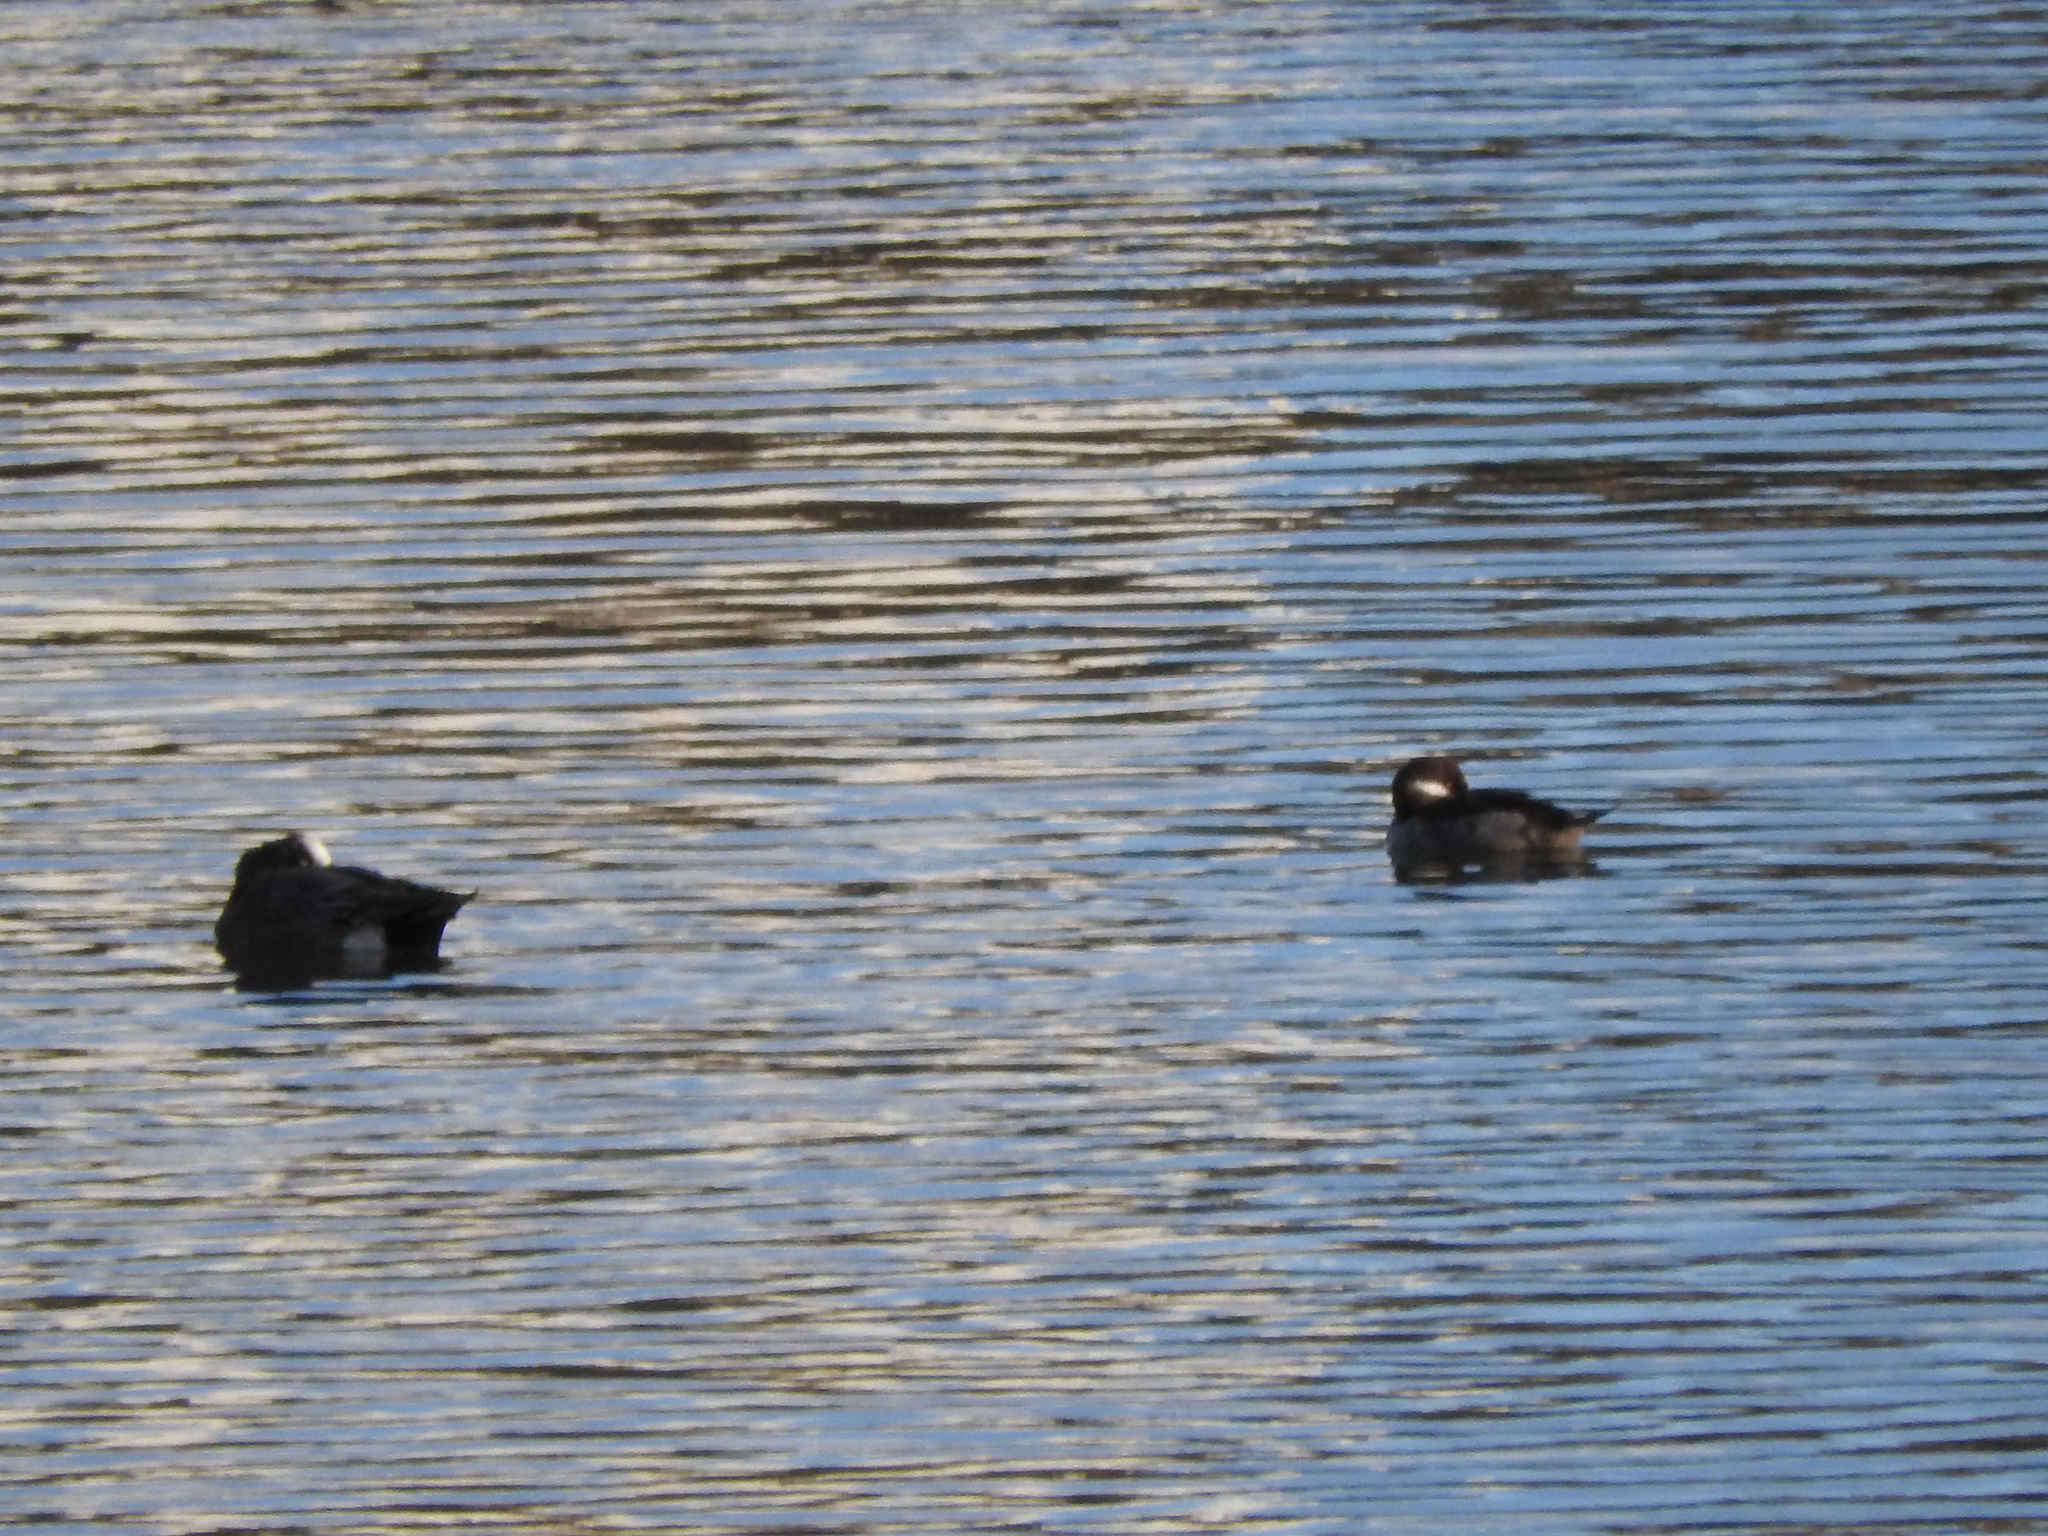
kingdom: Animalia
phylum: Chordata
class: Aves
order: Anseriformes
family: Anatidae
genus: Bucephala
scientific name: Bucephala albeola
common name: Bufflehead
